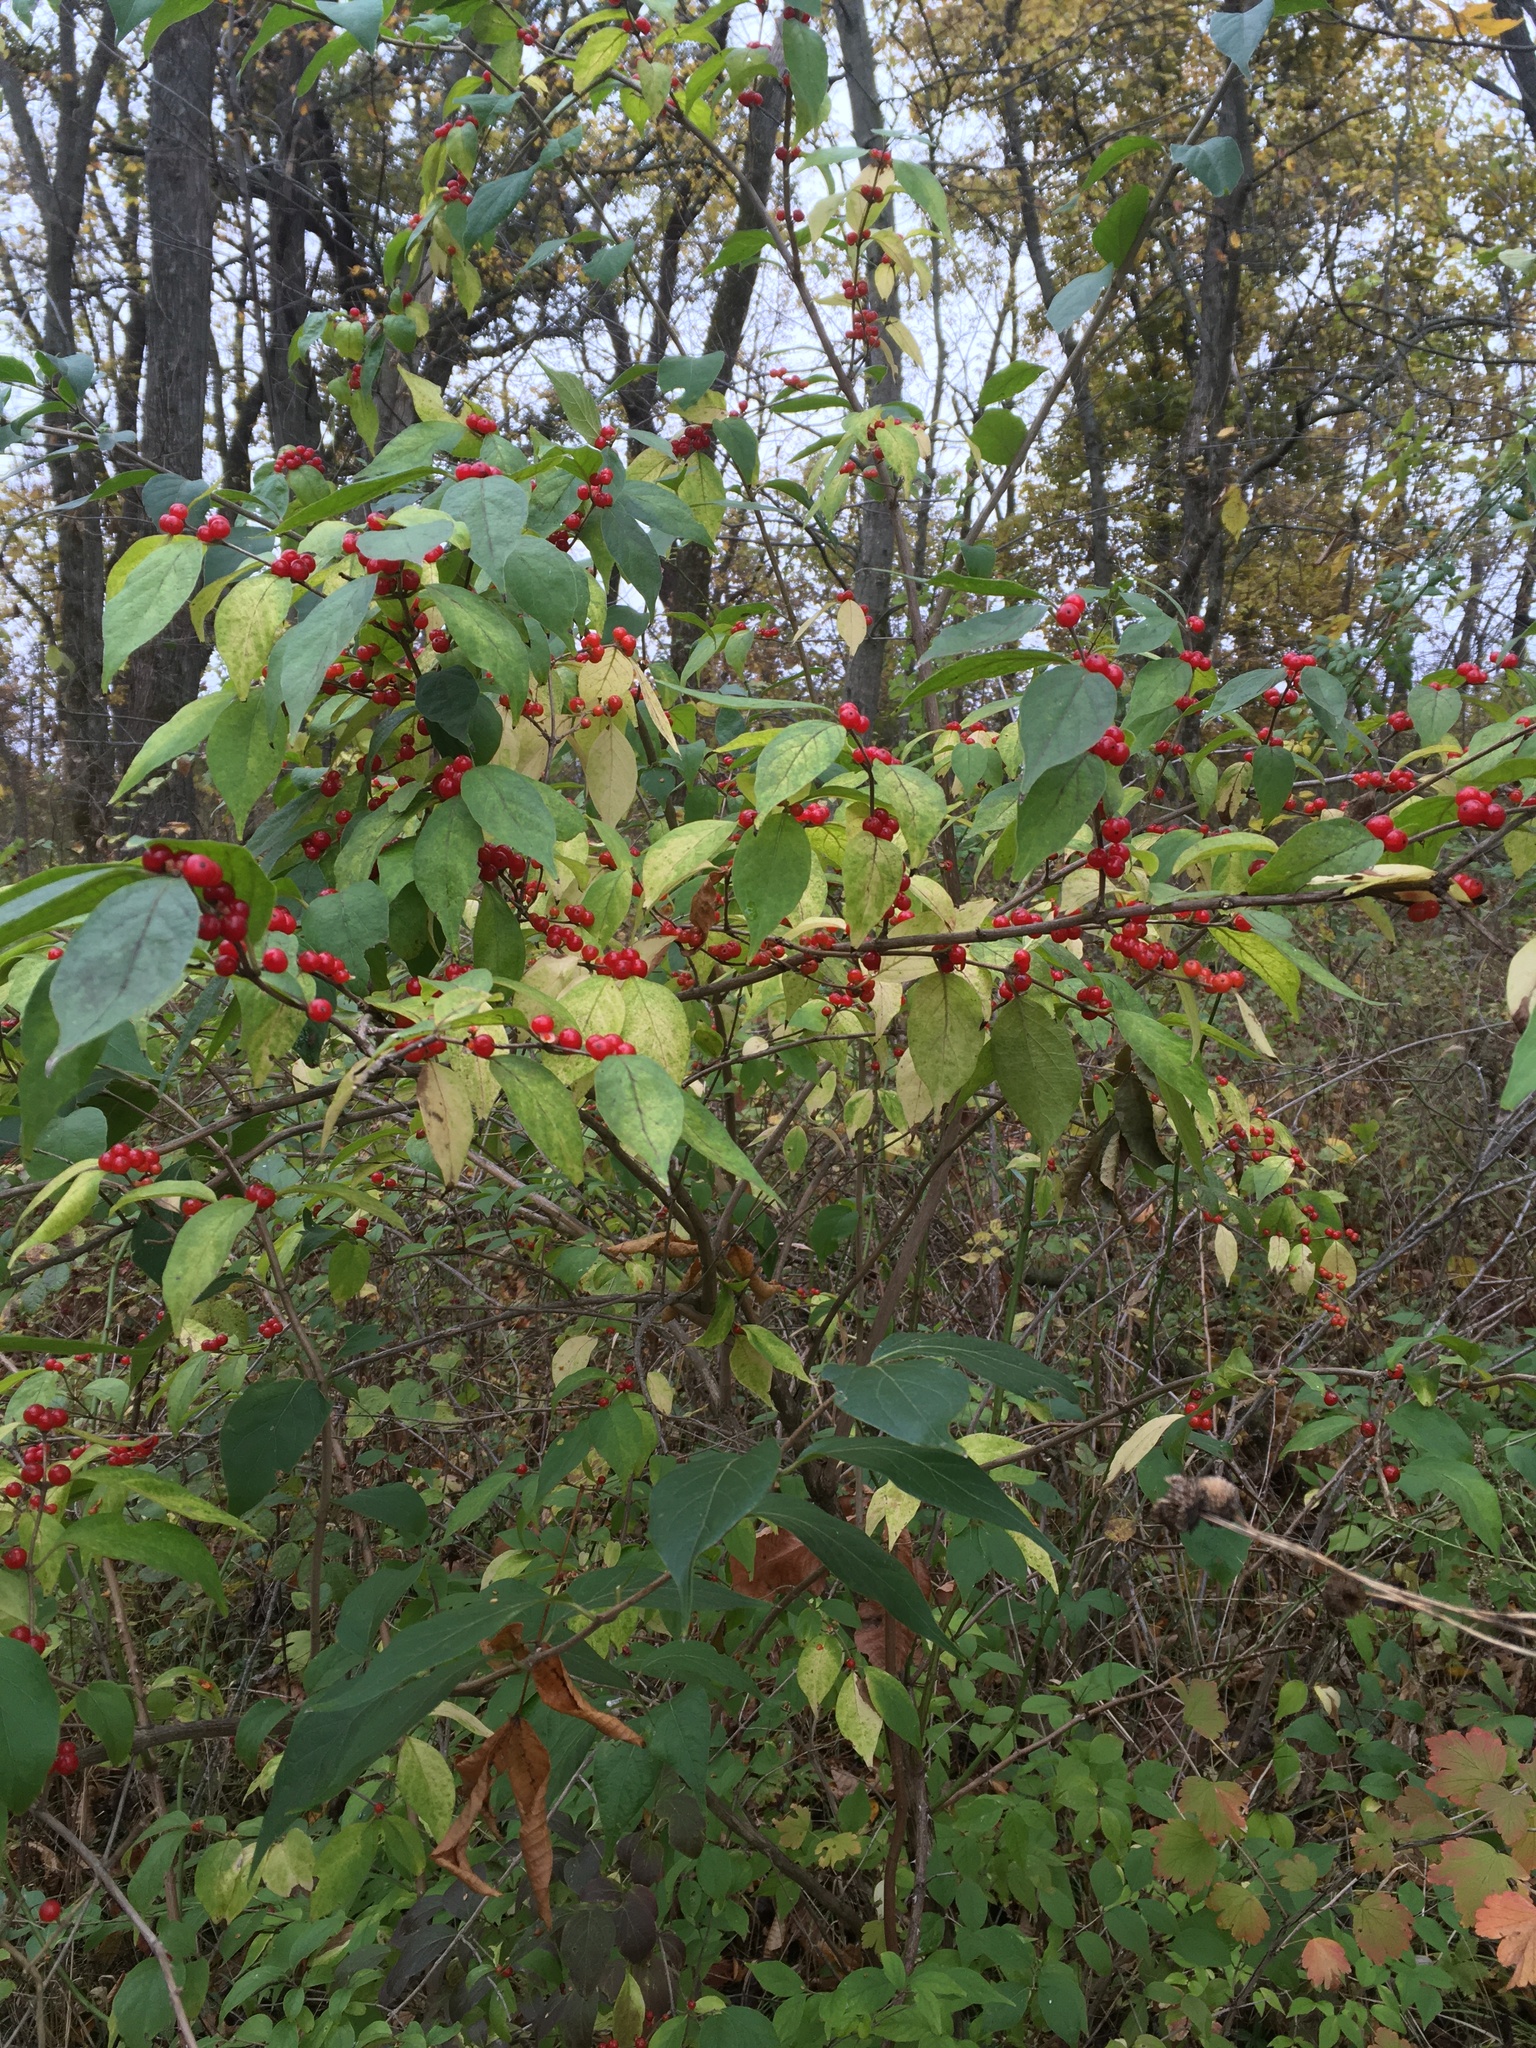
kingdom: Plantae
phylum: Tracheophyta
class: Magnoliopsida
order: Dipsacales
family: Caprifoliaceae
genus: Lonicera
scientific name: Lonicera maackii
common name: Amur honeysuckle
